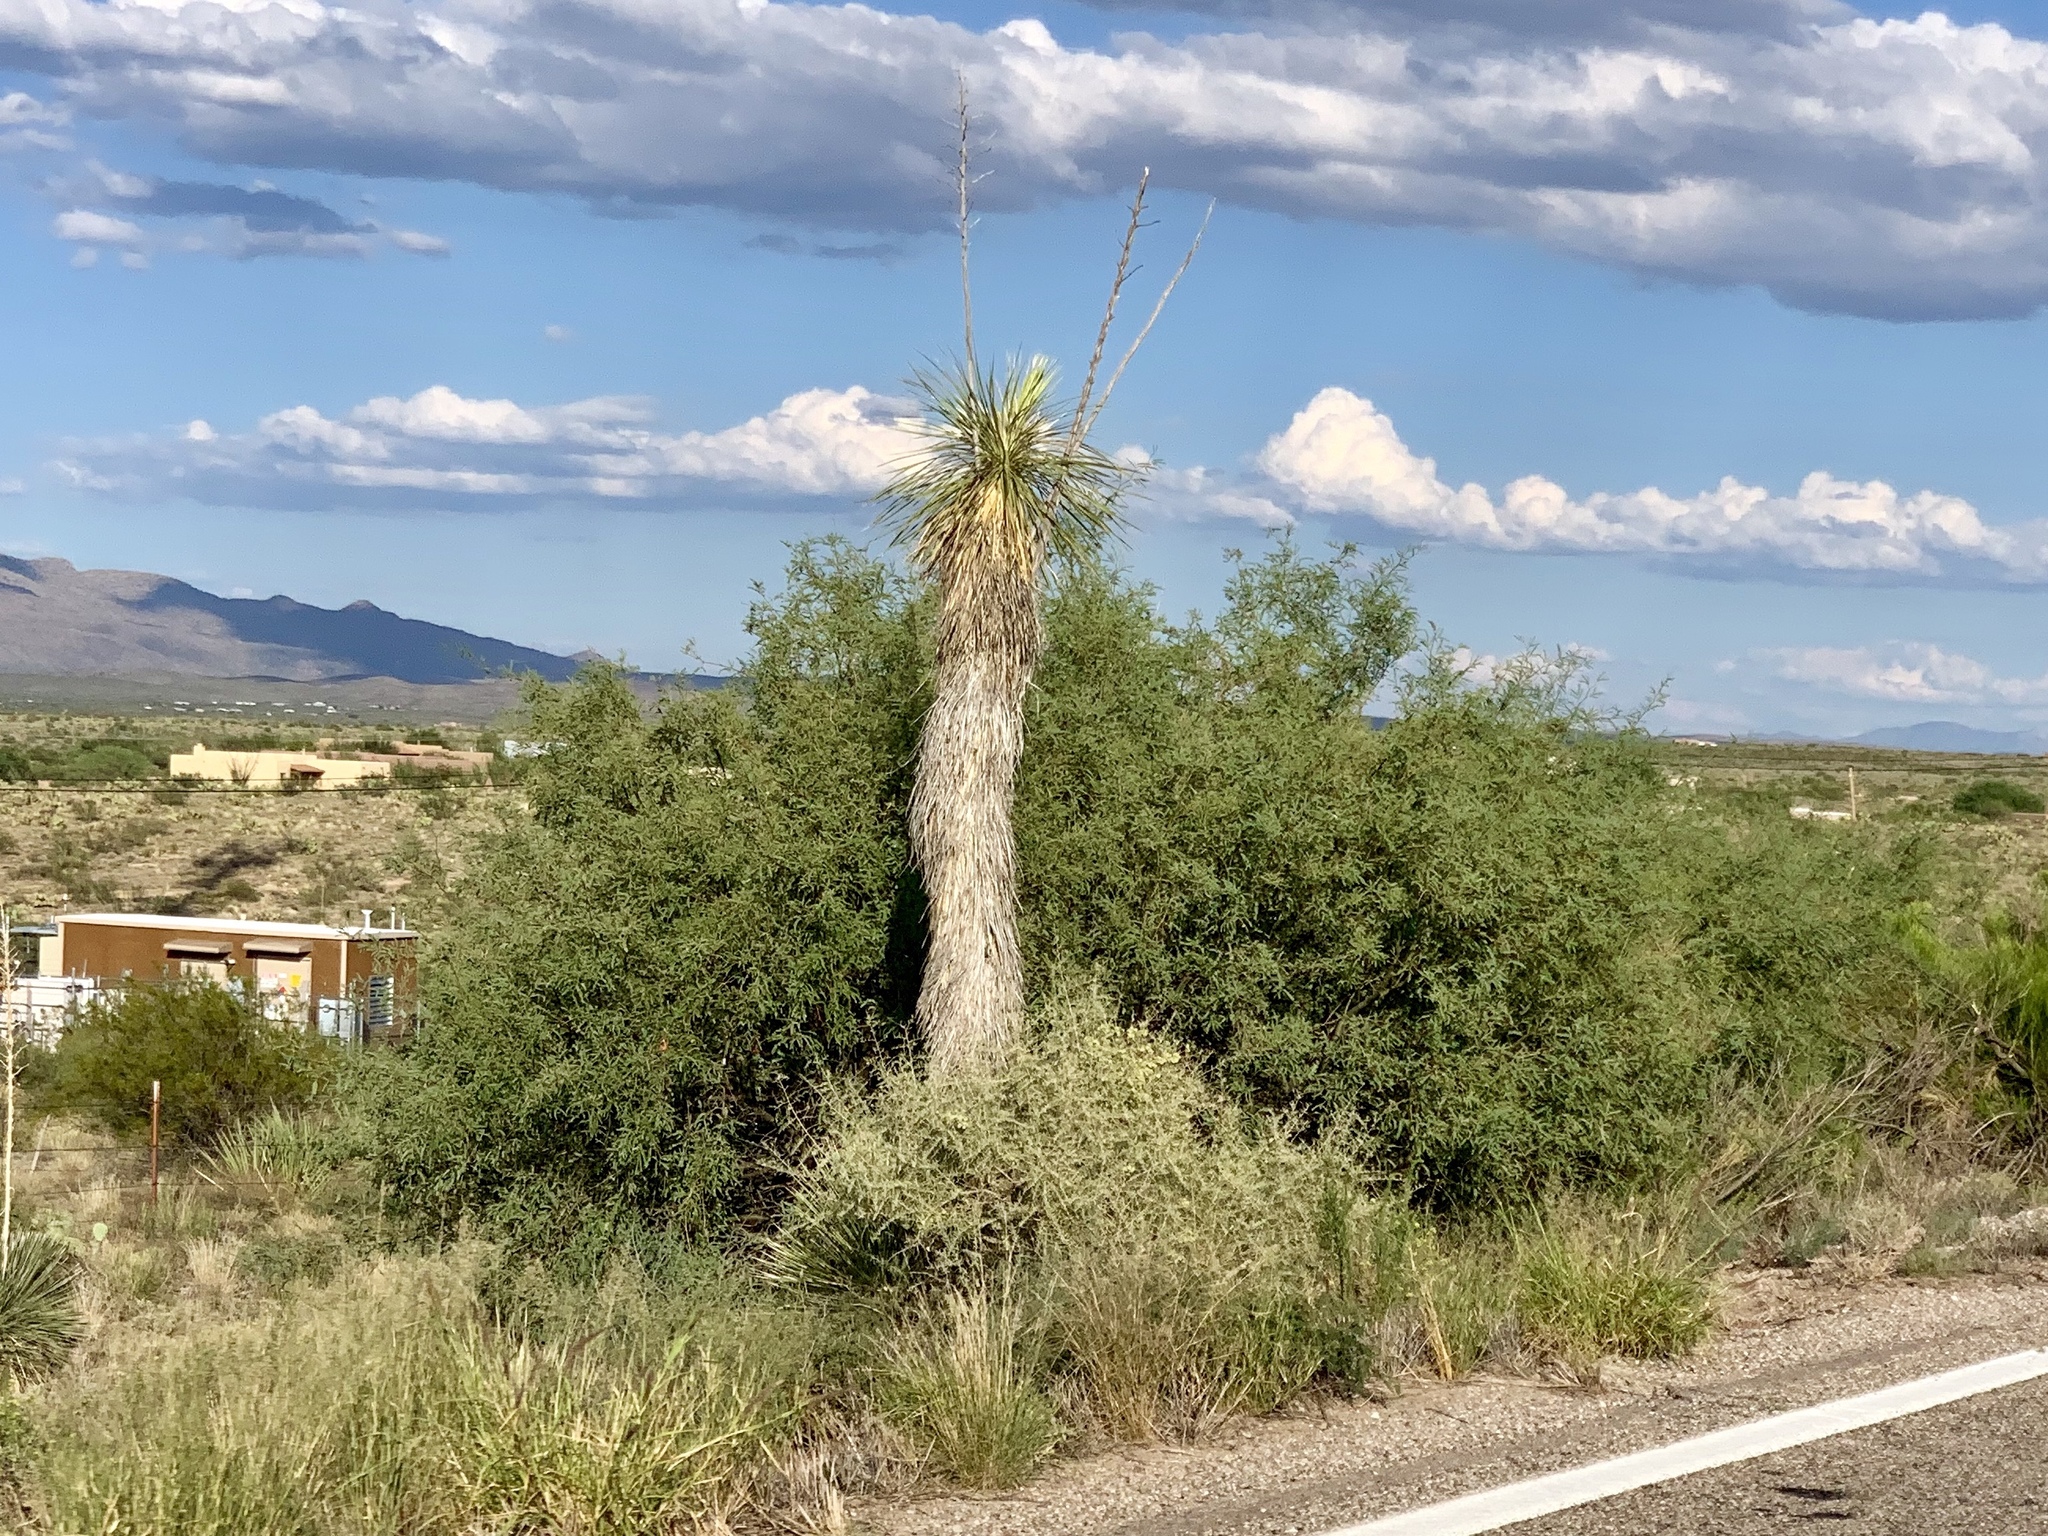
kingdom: Plantae
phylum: Tracheophyta
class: Liliopsida
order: Asparagales
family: Asparagaceae
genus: Yucca
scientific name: Yucca elata
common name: Palmella
